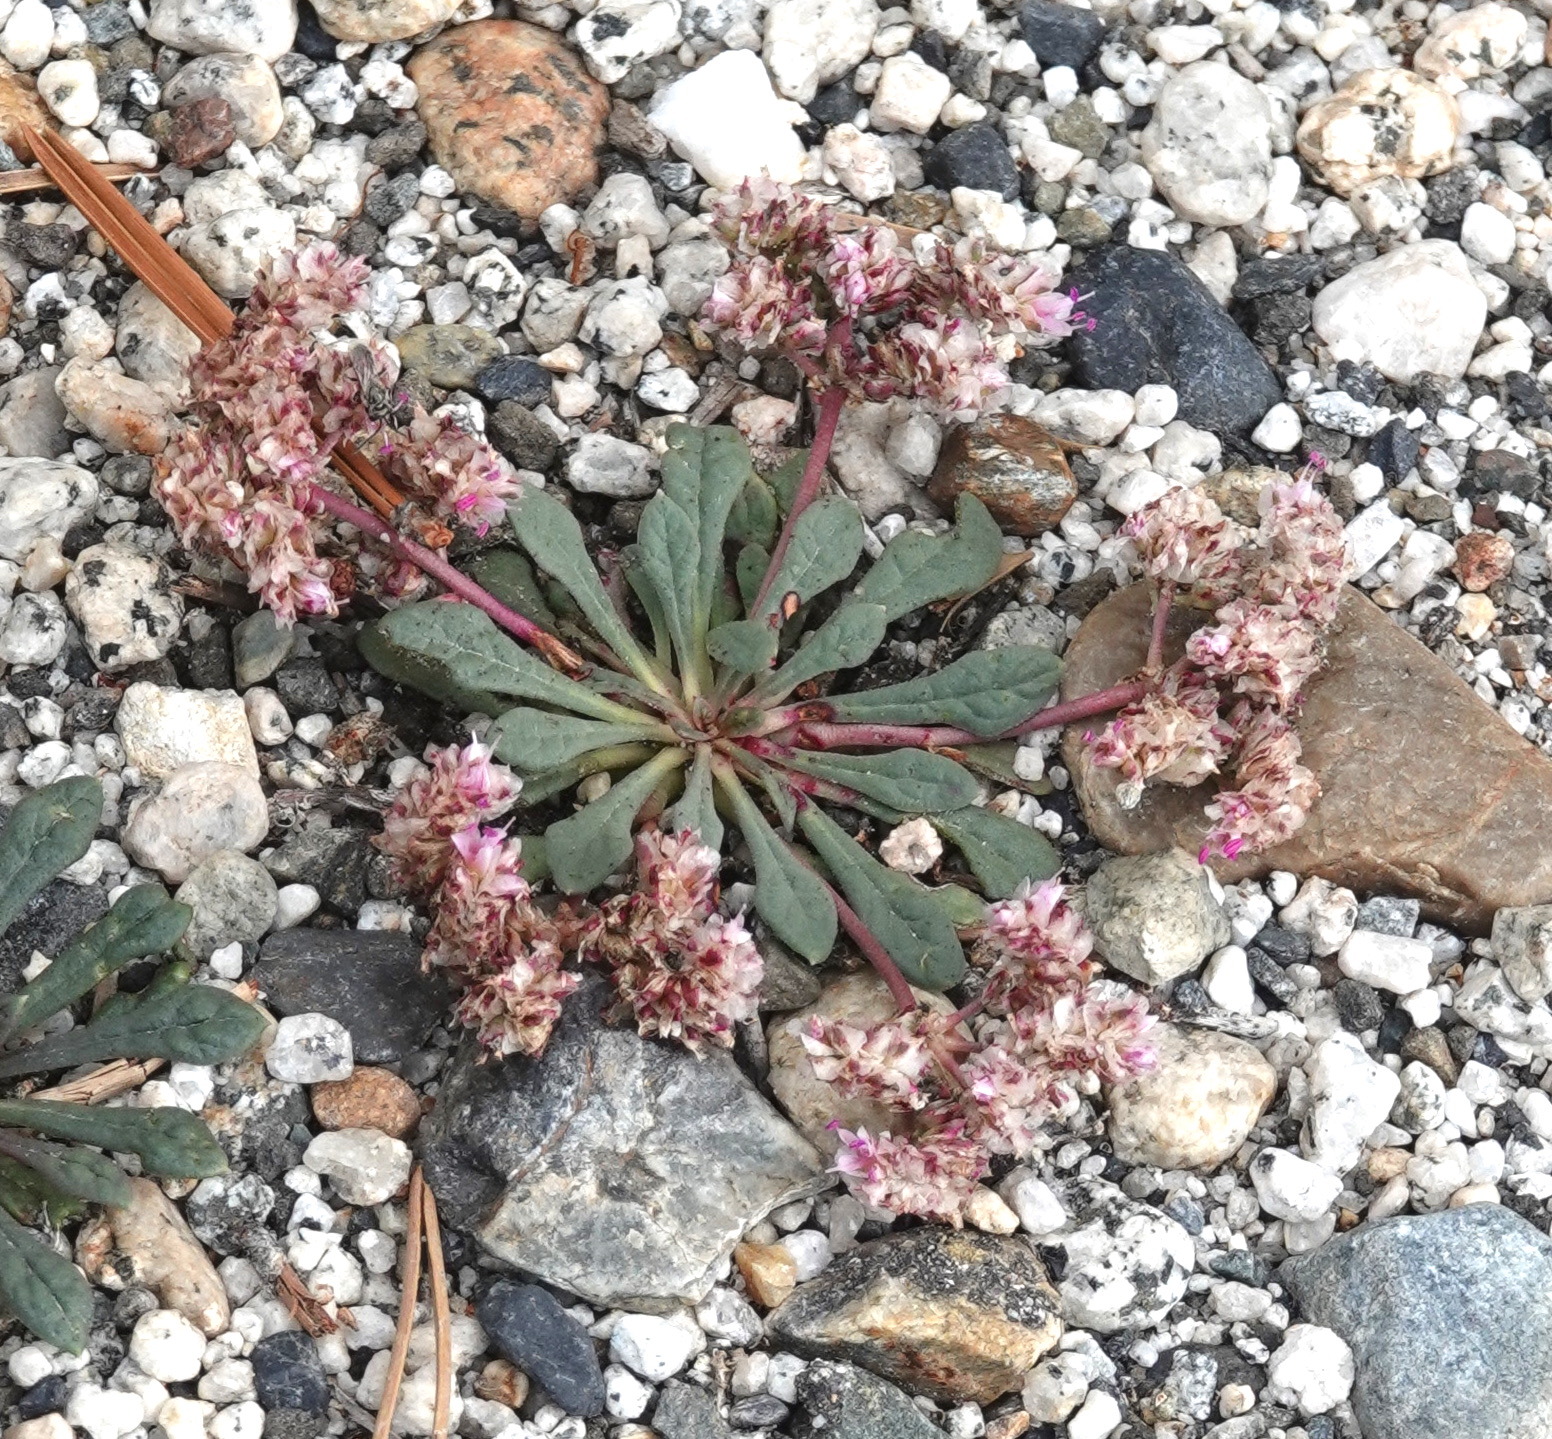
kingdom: Plantae
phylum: Tracheophyta
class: Magnoliopsida
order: Caryophyllales
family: Montiaceae
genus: Calyptridium
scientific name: Calyptridium monospermum
